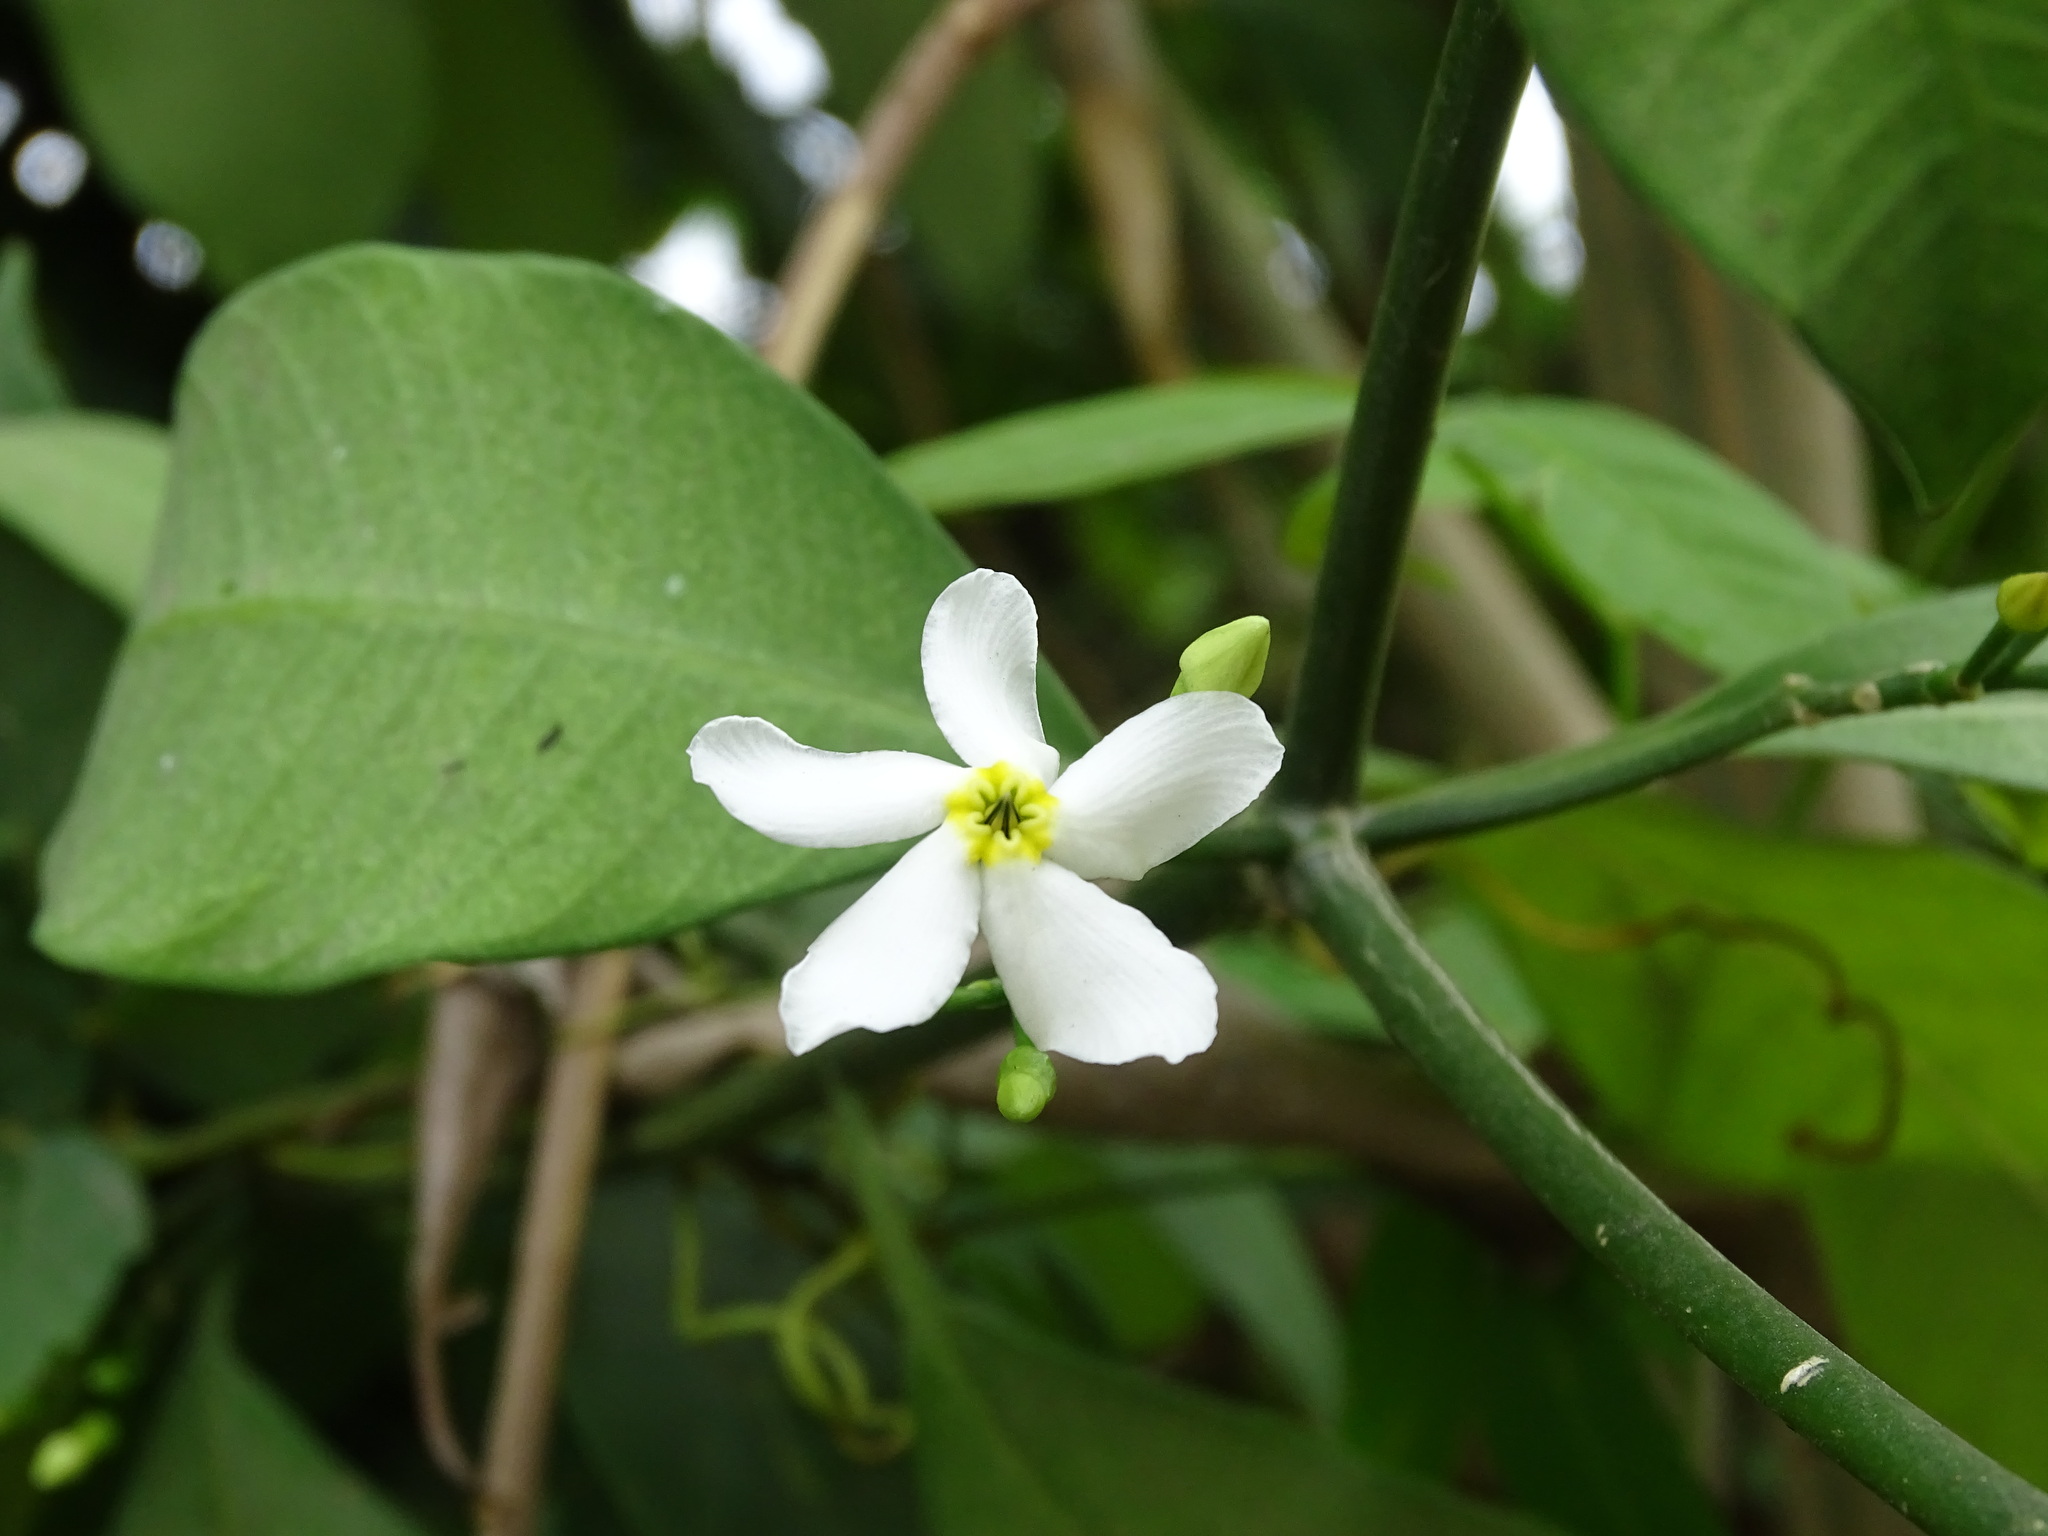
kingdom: Plantae
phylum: Tracheophyta
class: Magnoliopsida
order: Gentianales
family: Apocynaceae
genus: Tabernaemontana
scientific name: Tabernaemontana amygdalifolia
